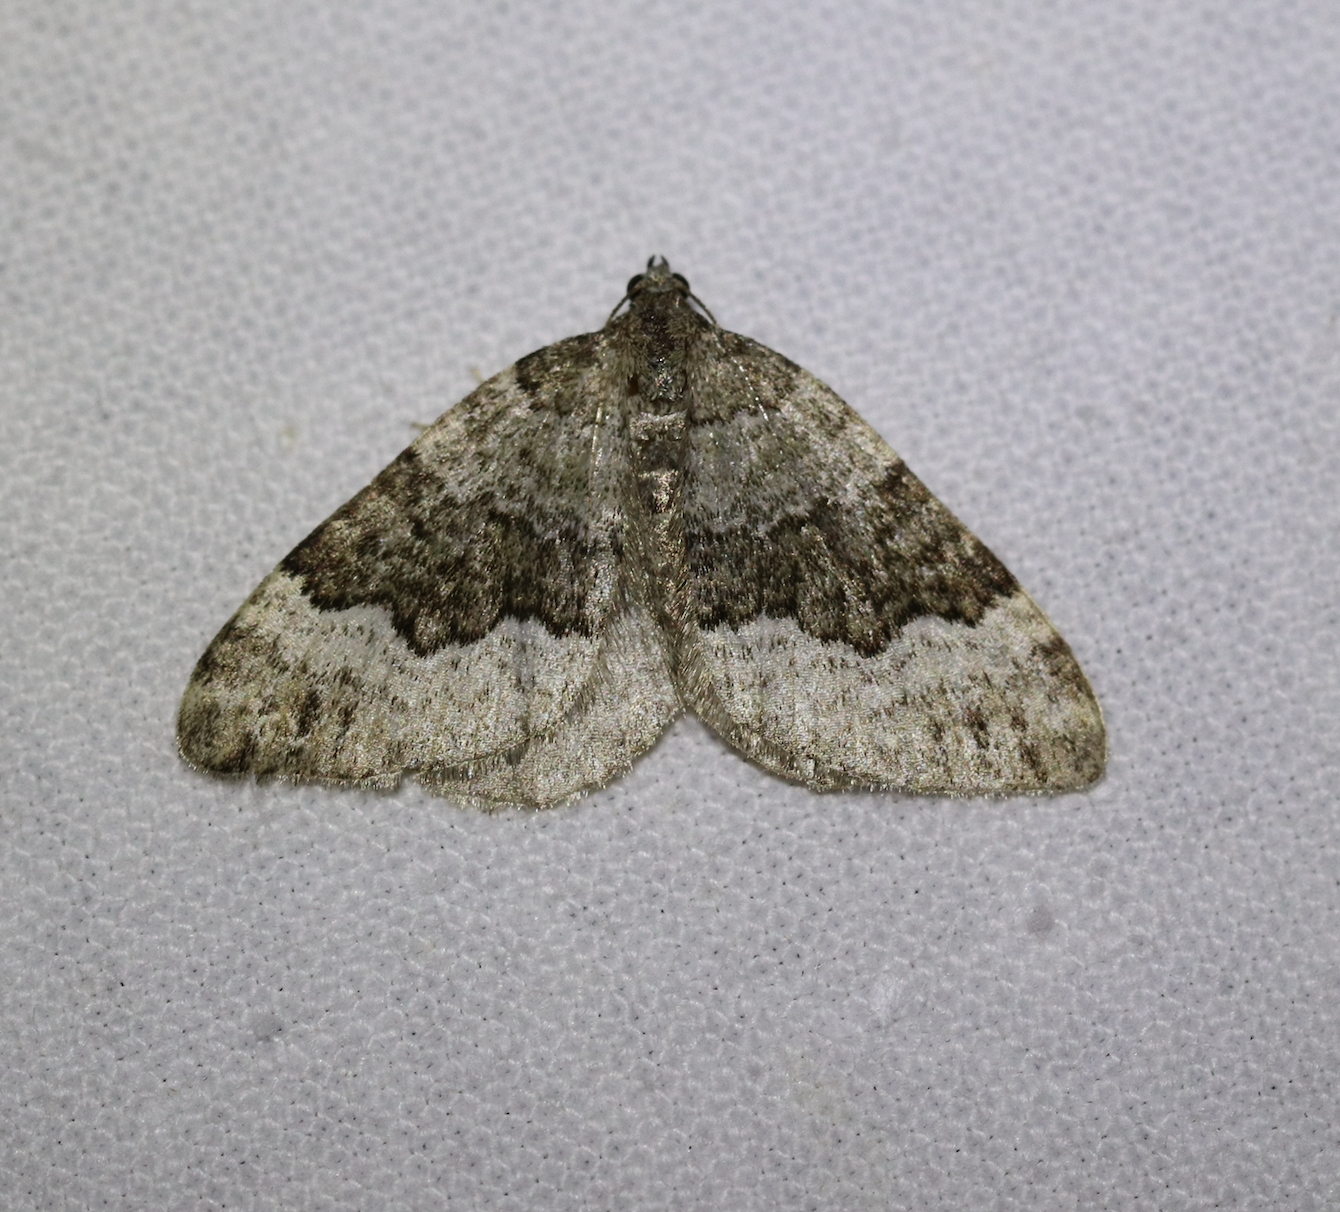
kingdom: Animalia
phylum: Arthropoda
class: Insecta
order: Lepidoptera
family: Geometridae
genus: Colostygia
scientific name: Colostygia aptata
